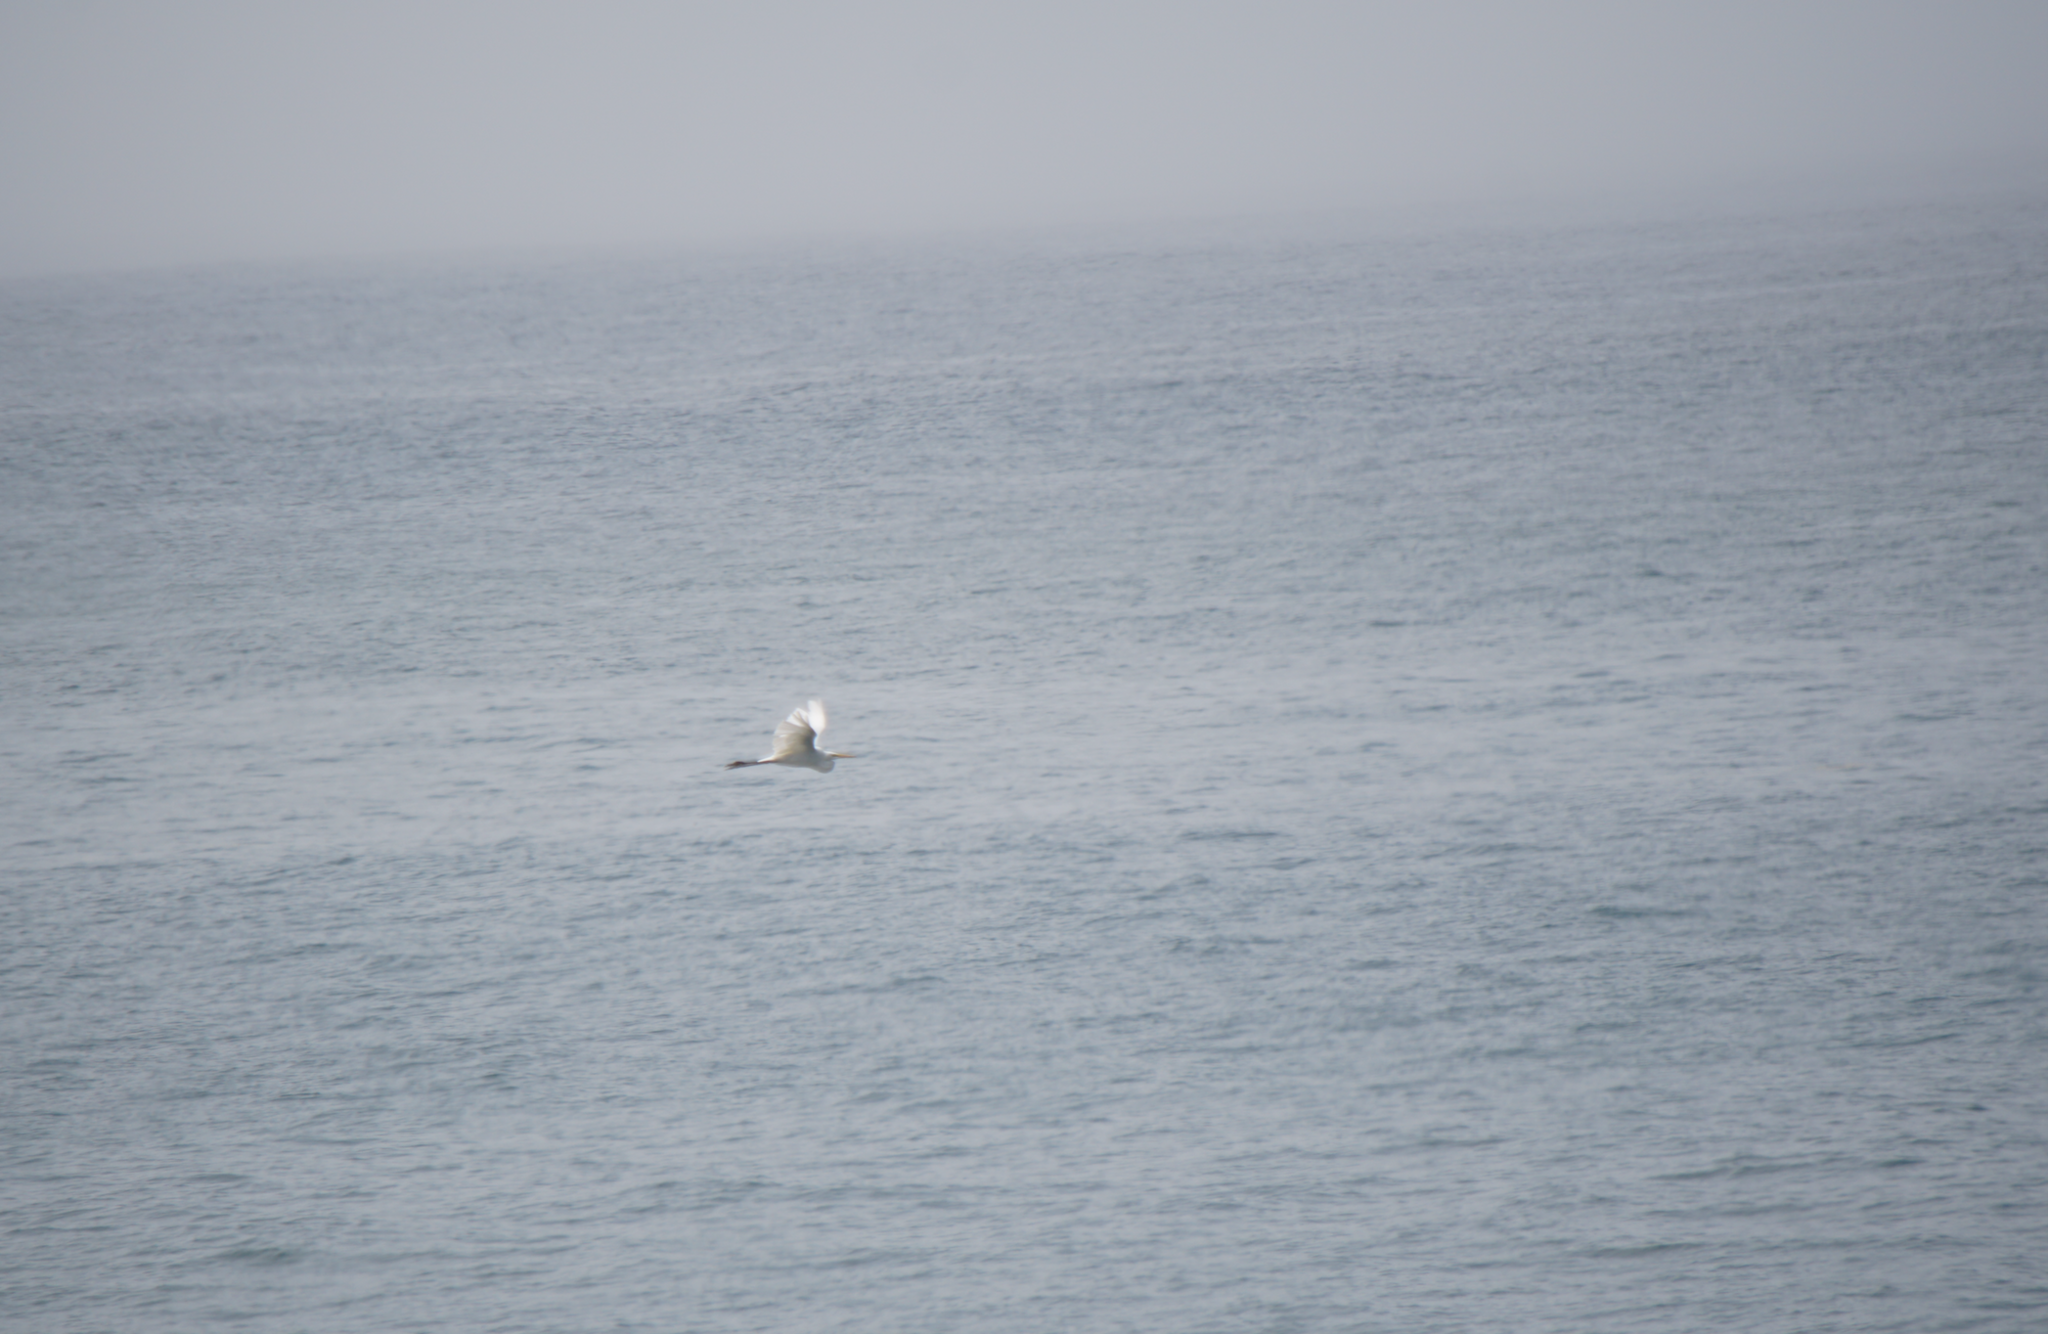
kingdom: Animalia
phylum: Chordata
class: Aves
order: Pelecaniformes
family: Ardeidae
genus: Ardea
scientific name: Ardea alba
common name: Great egret
